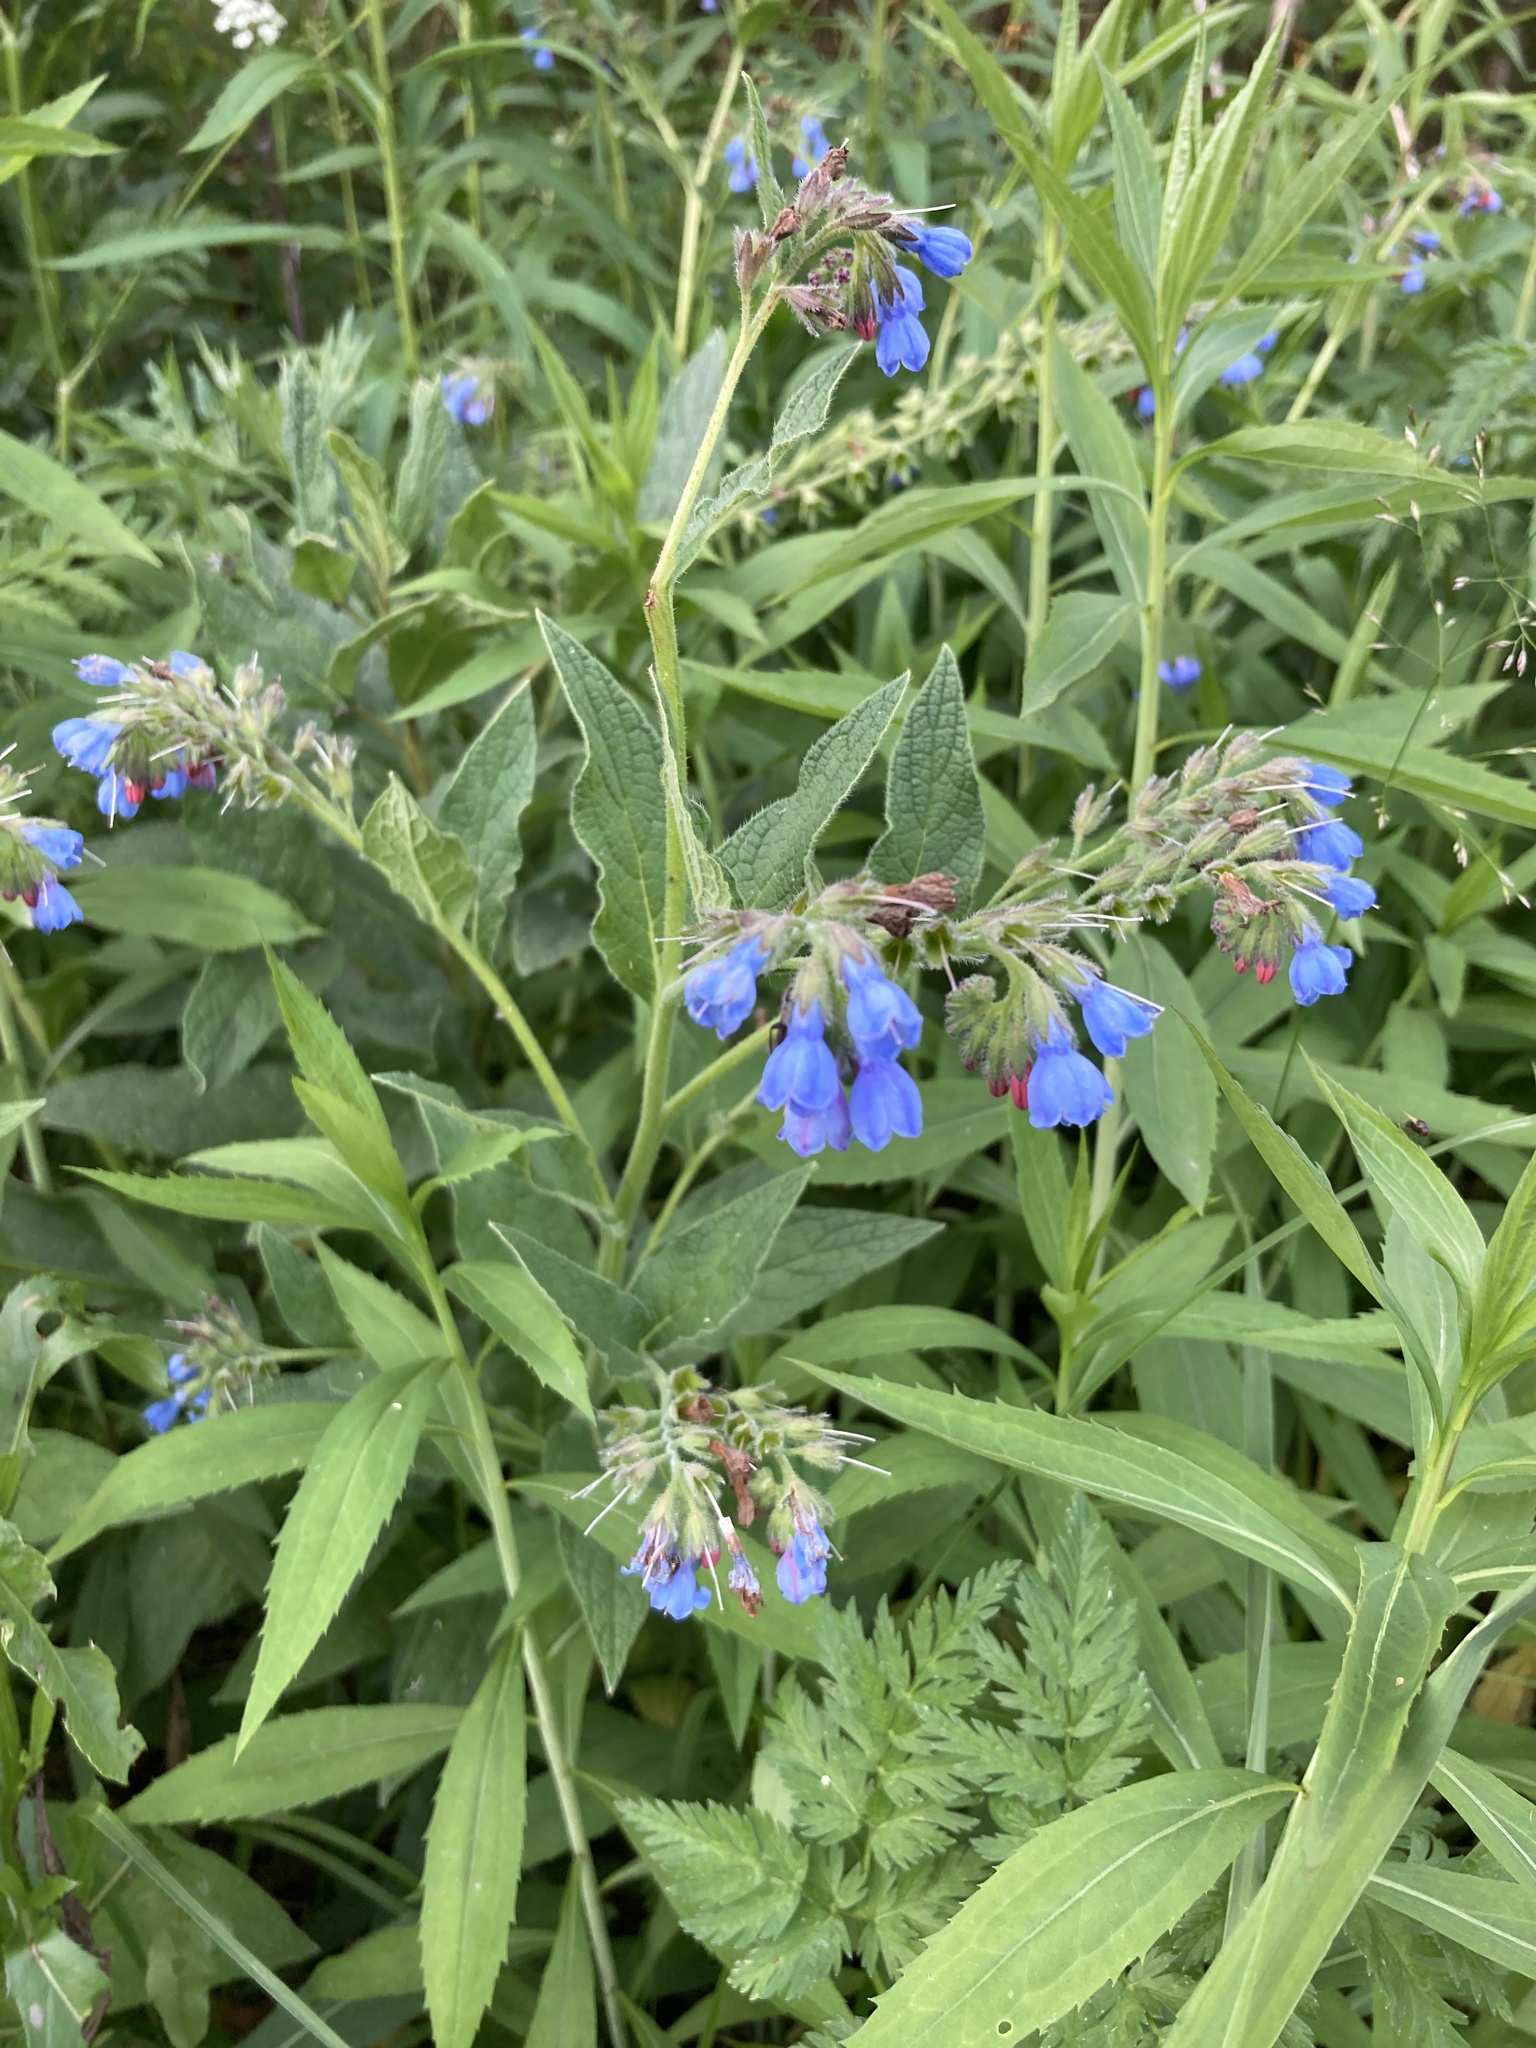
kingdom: Plantae
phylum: Tracheophyta
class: Magnoliopsida
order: Boraginales
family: Boraginaceae
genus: Symphytum
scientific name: Symphytum caucasicum
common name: Caucasian comfrey
